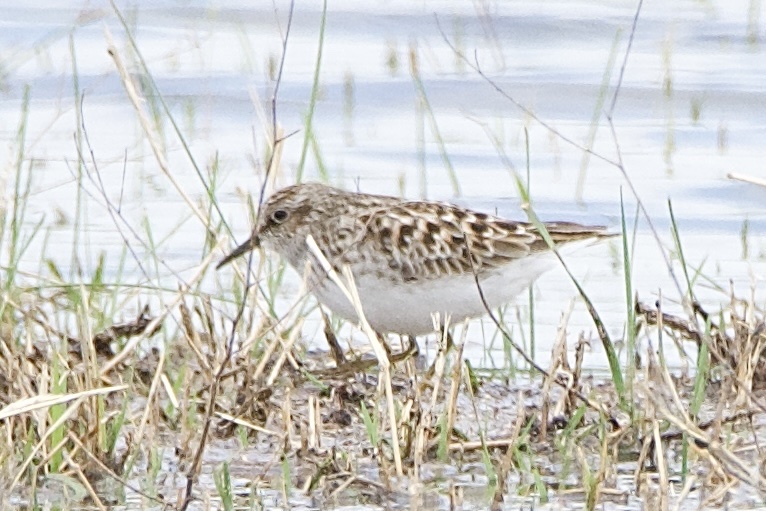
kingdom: Animalia
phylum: Chordata
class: Aves
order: Charadriiformes
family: Scolopacidae
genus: Calidris
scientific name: Calidris minutilla
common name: Least sandpiper
